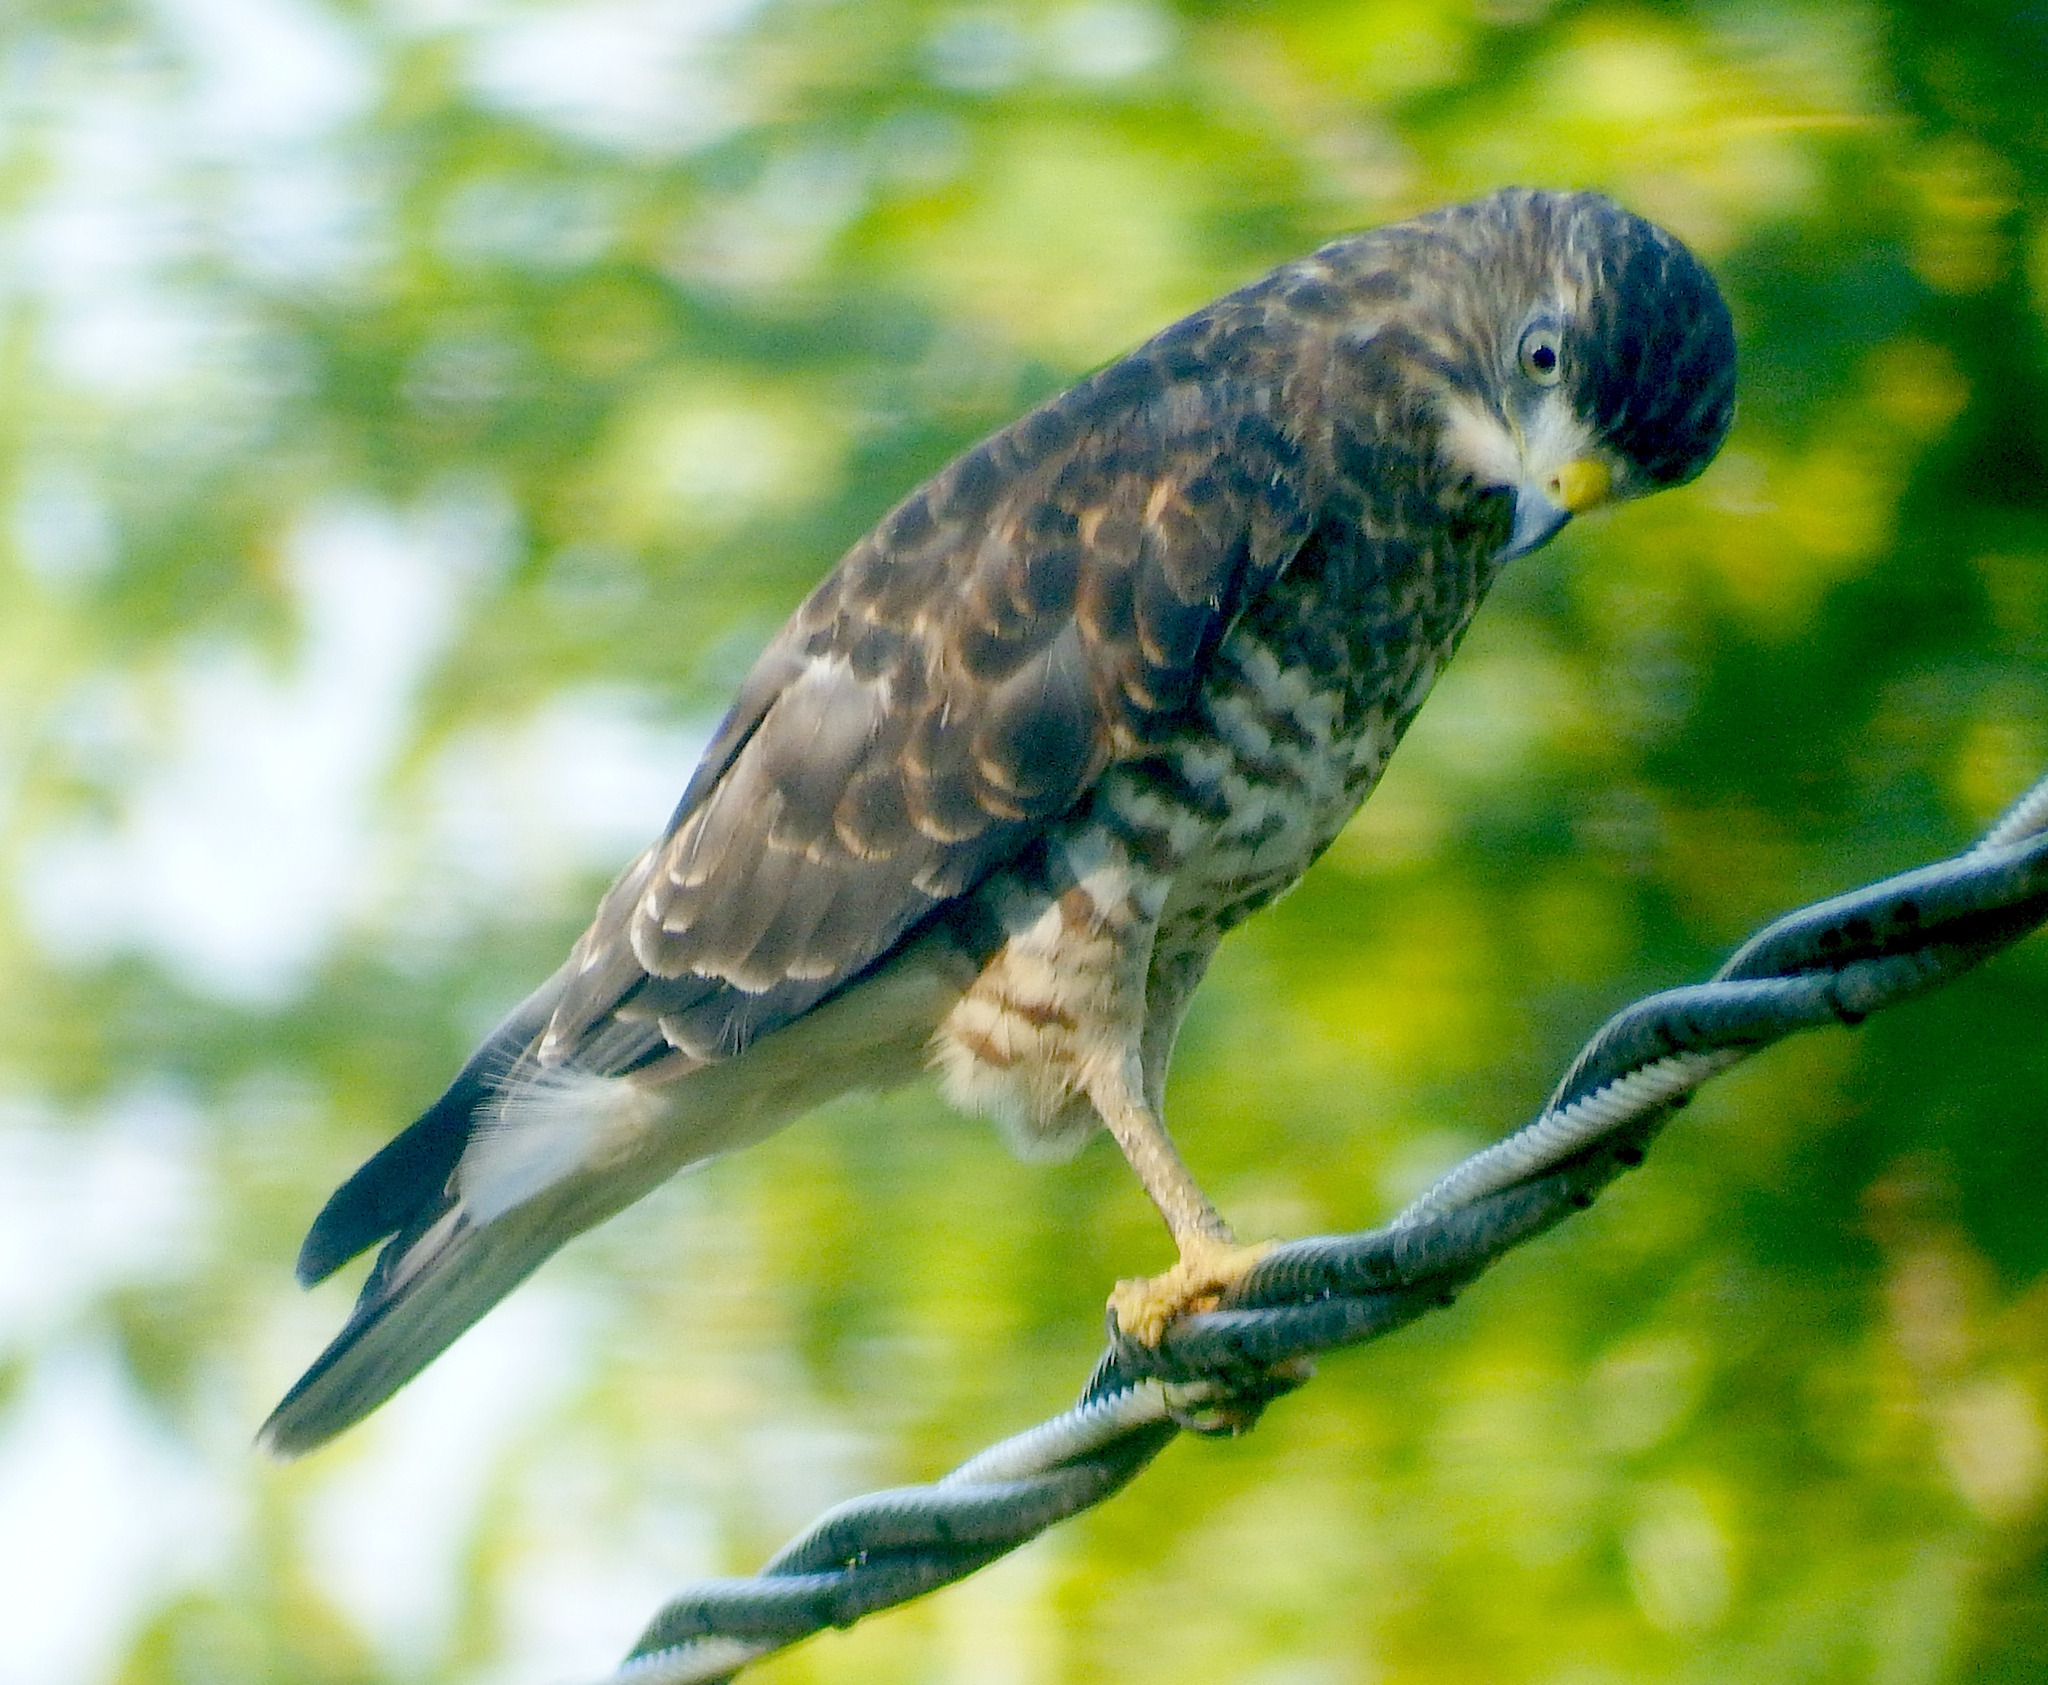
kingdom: Animalia
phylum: Chordata
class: Aves
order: Accipitriformes
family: Accipitridae
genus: Buteo
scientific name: Buteo platypterus
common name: Broad-winged hawk
